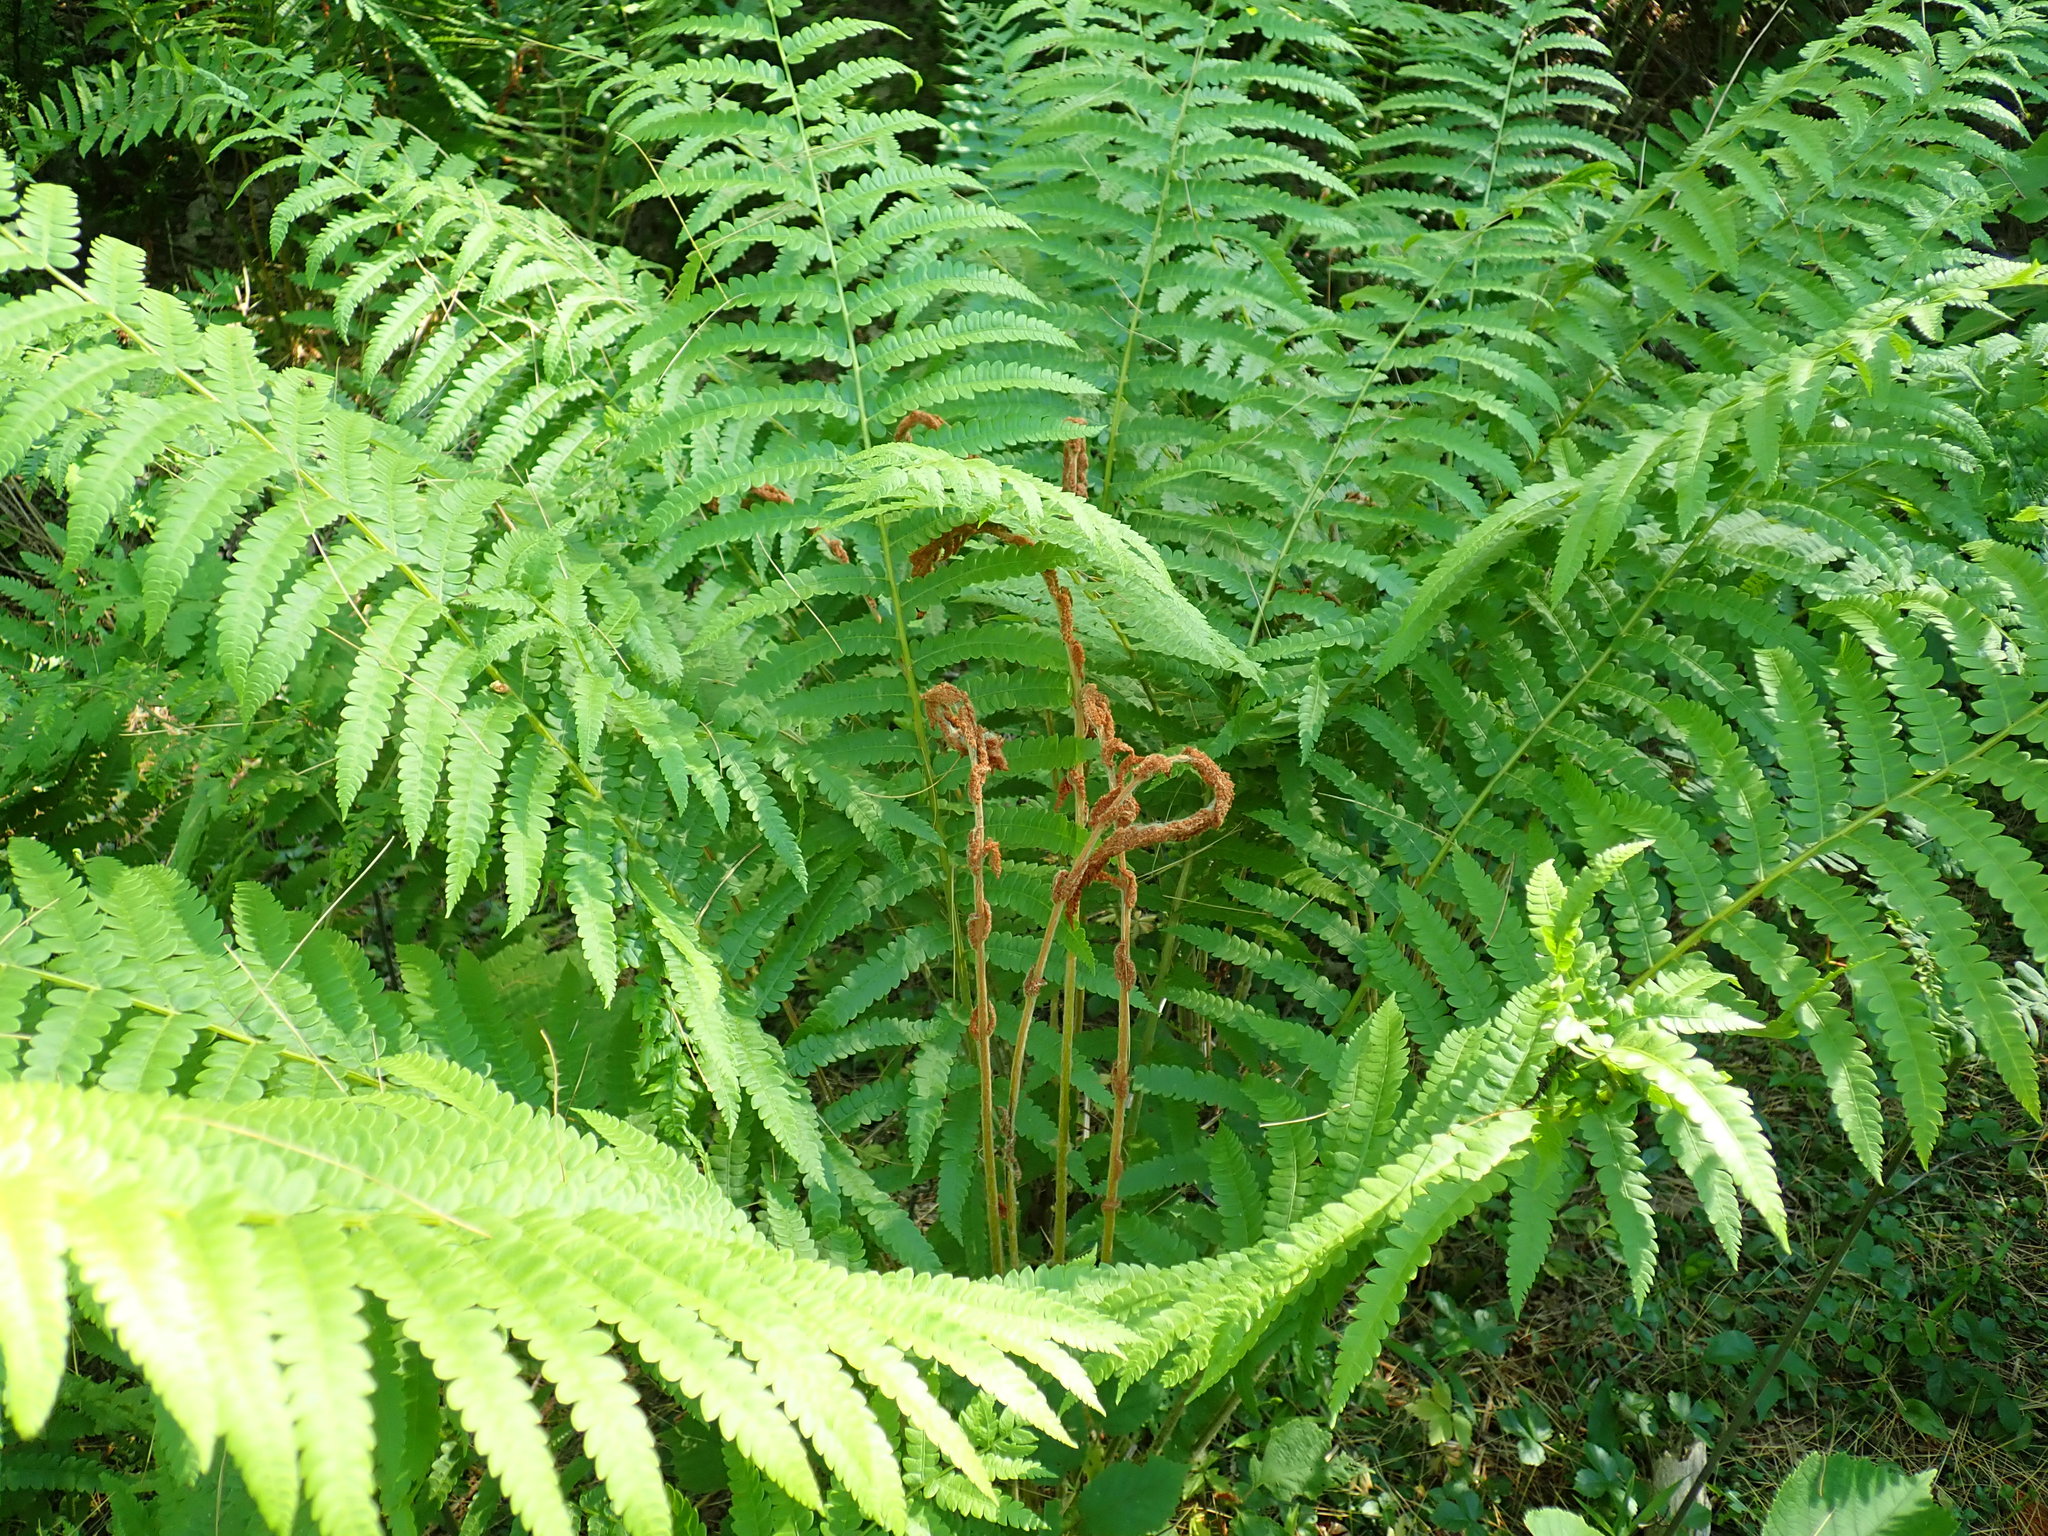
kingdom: Plantae
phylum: Tracheophyta
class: Polypodiopsida
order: Osmundales
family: Osmundaceae
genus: Osmundastrum
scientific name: Osmundastrum cinnamomeum
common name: Cinnamon fern
